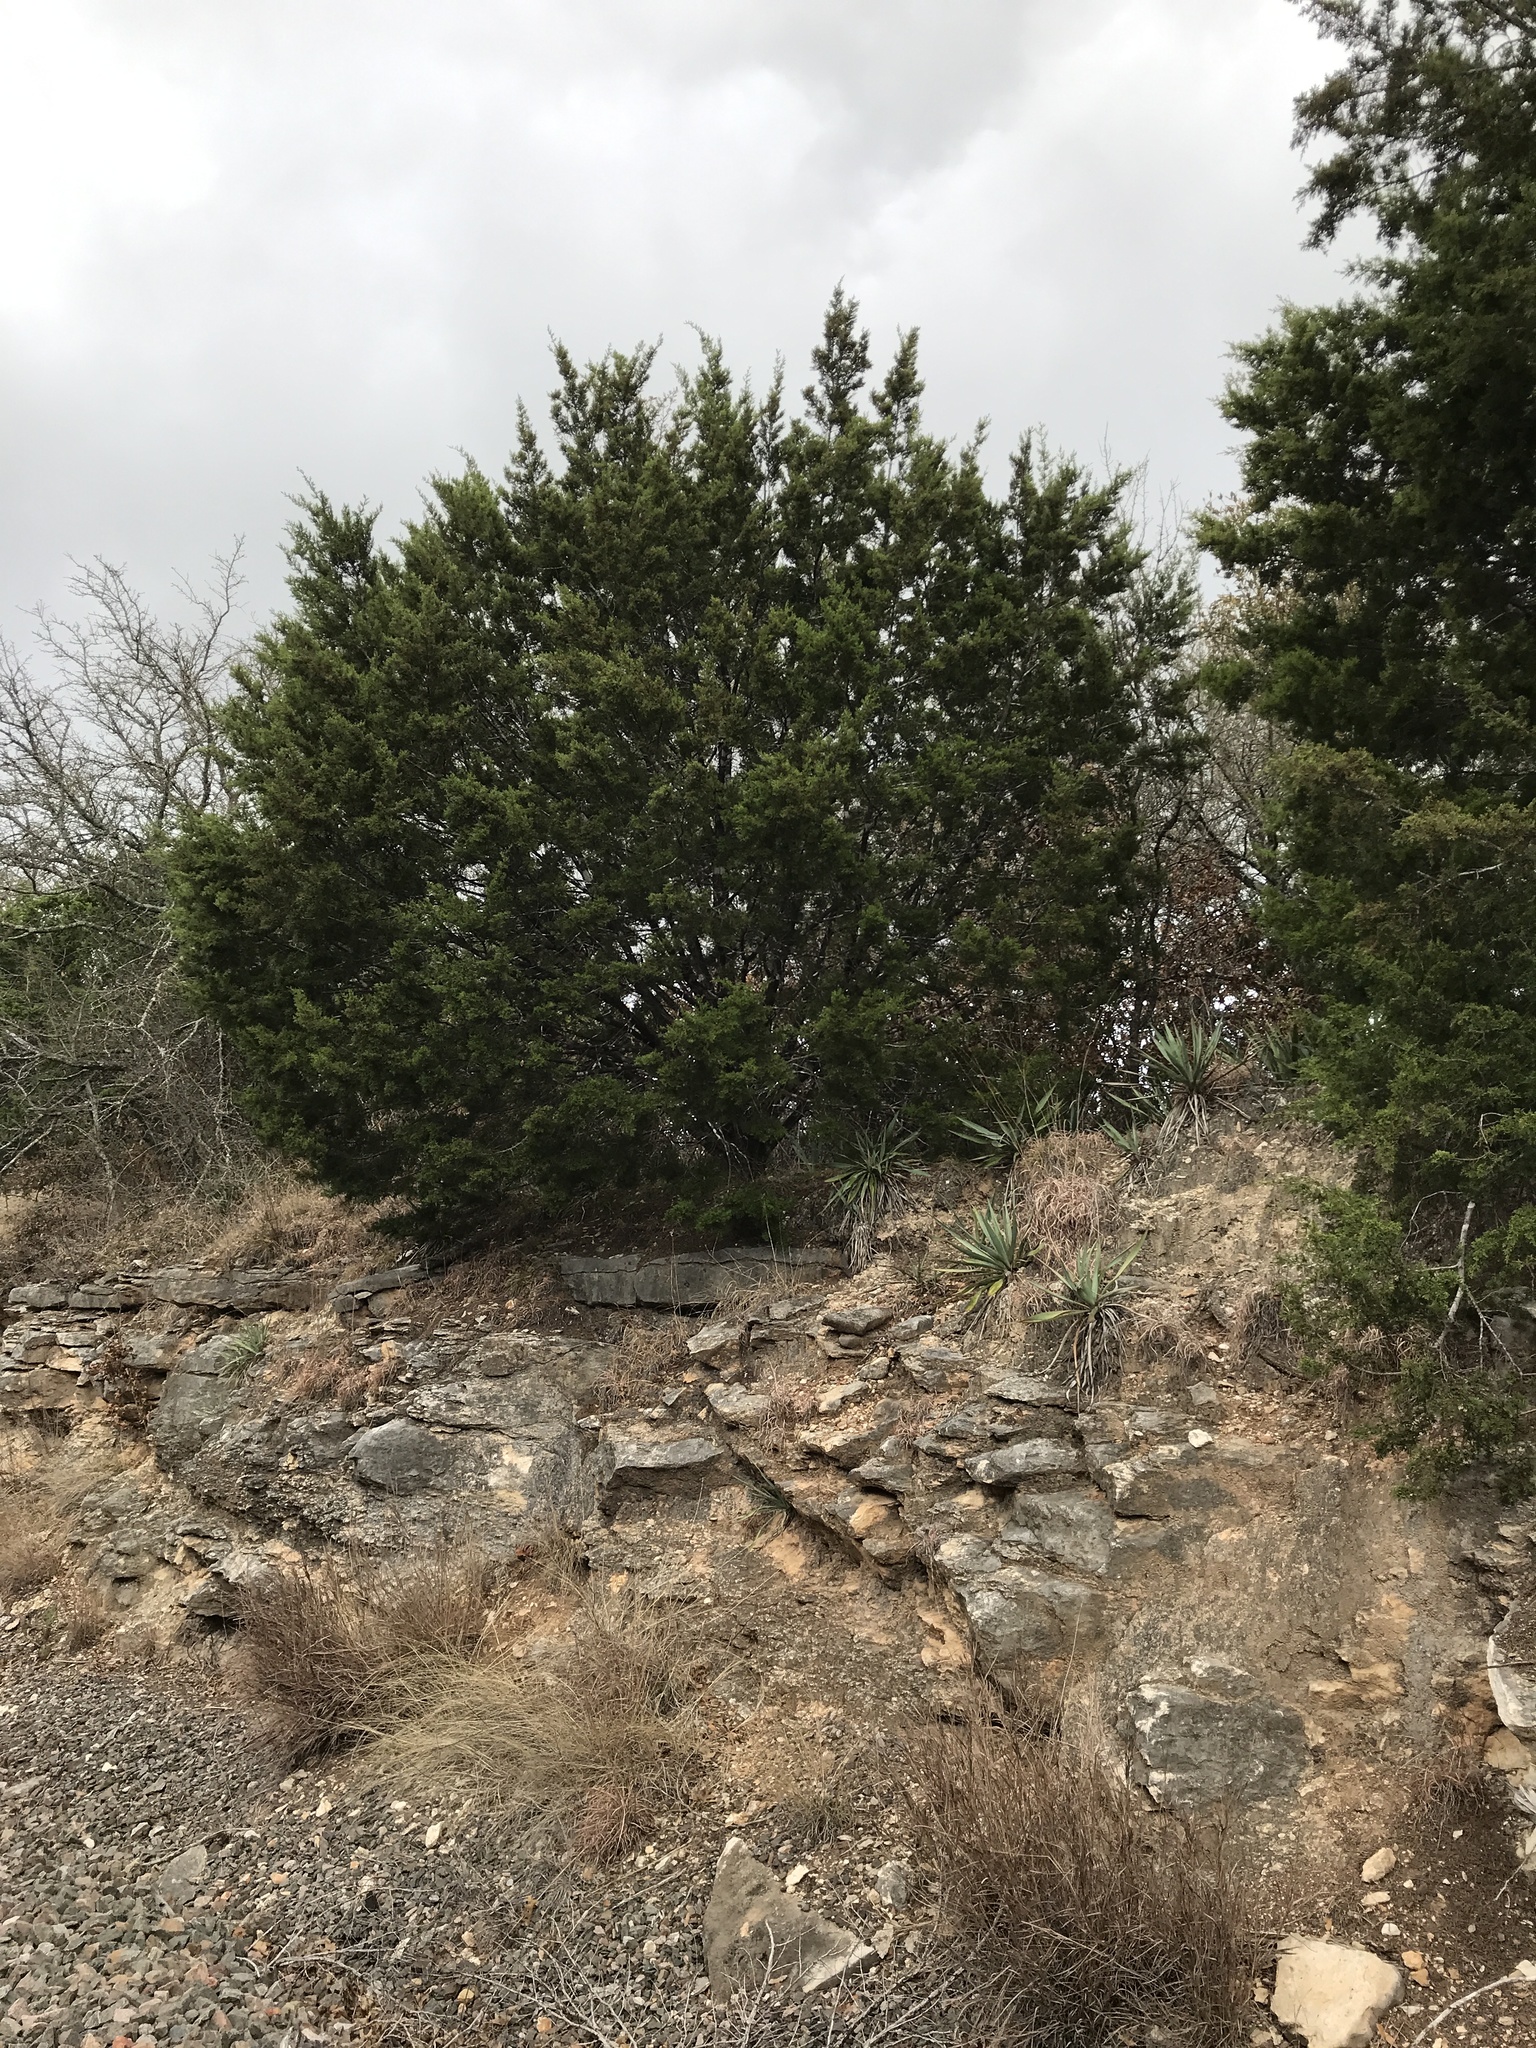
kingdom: Plantae
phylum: Tracheophyta
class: Pinopsida
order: Pinales
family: Cupressaceae
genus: Juniperus
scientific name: Juniperus ashei
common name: Mexican juniper
